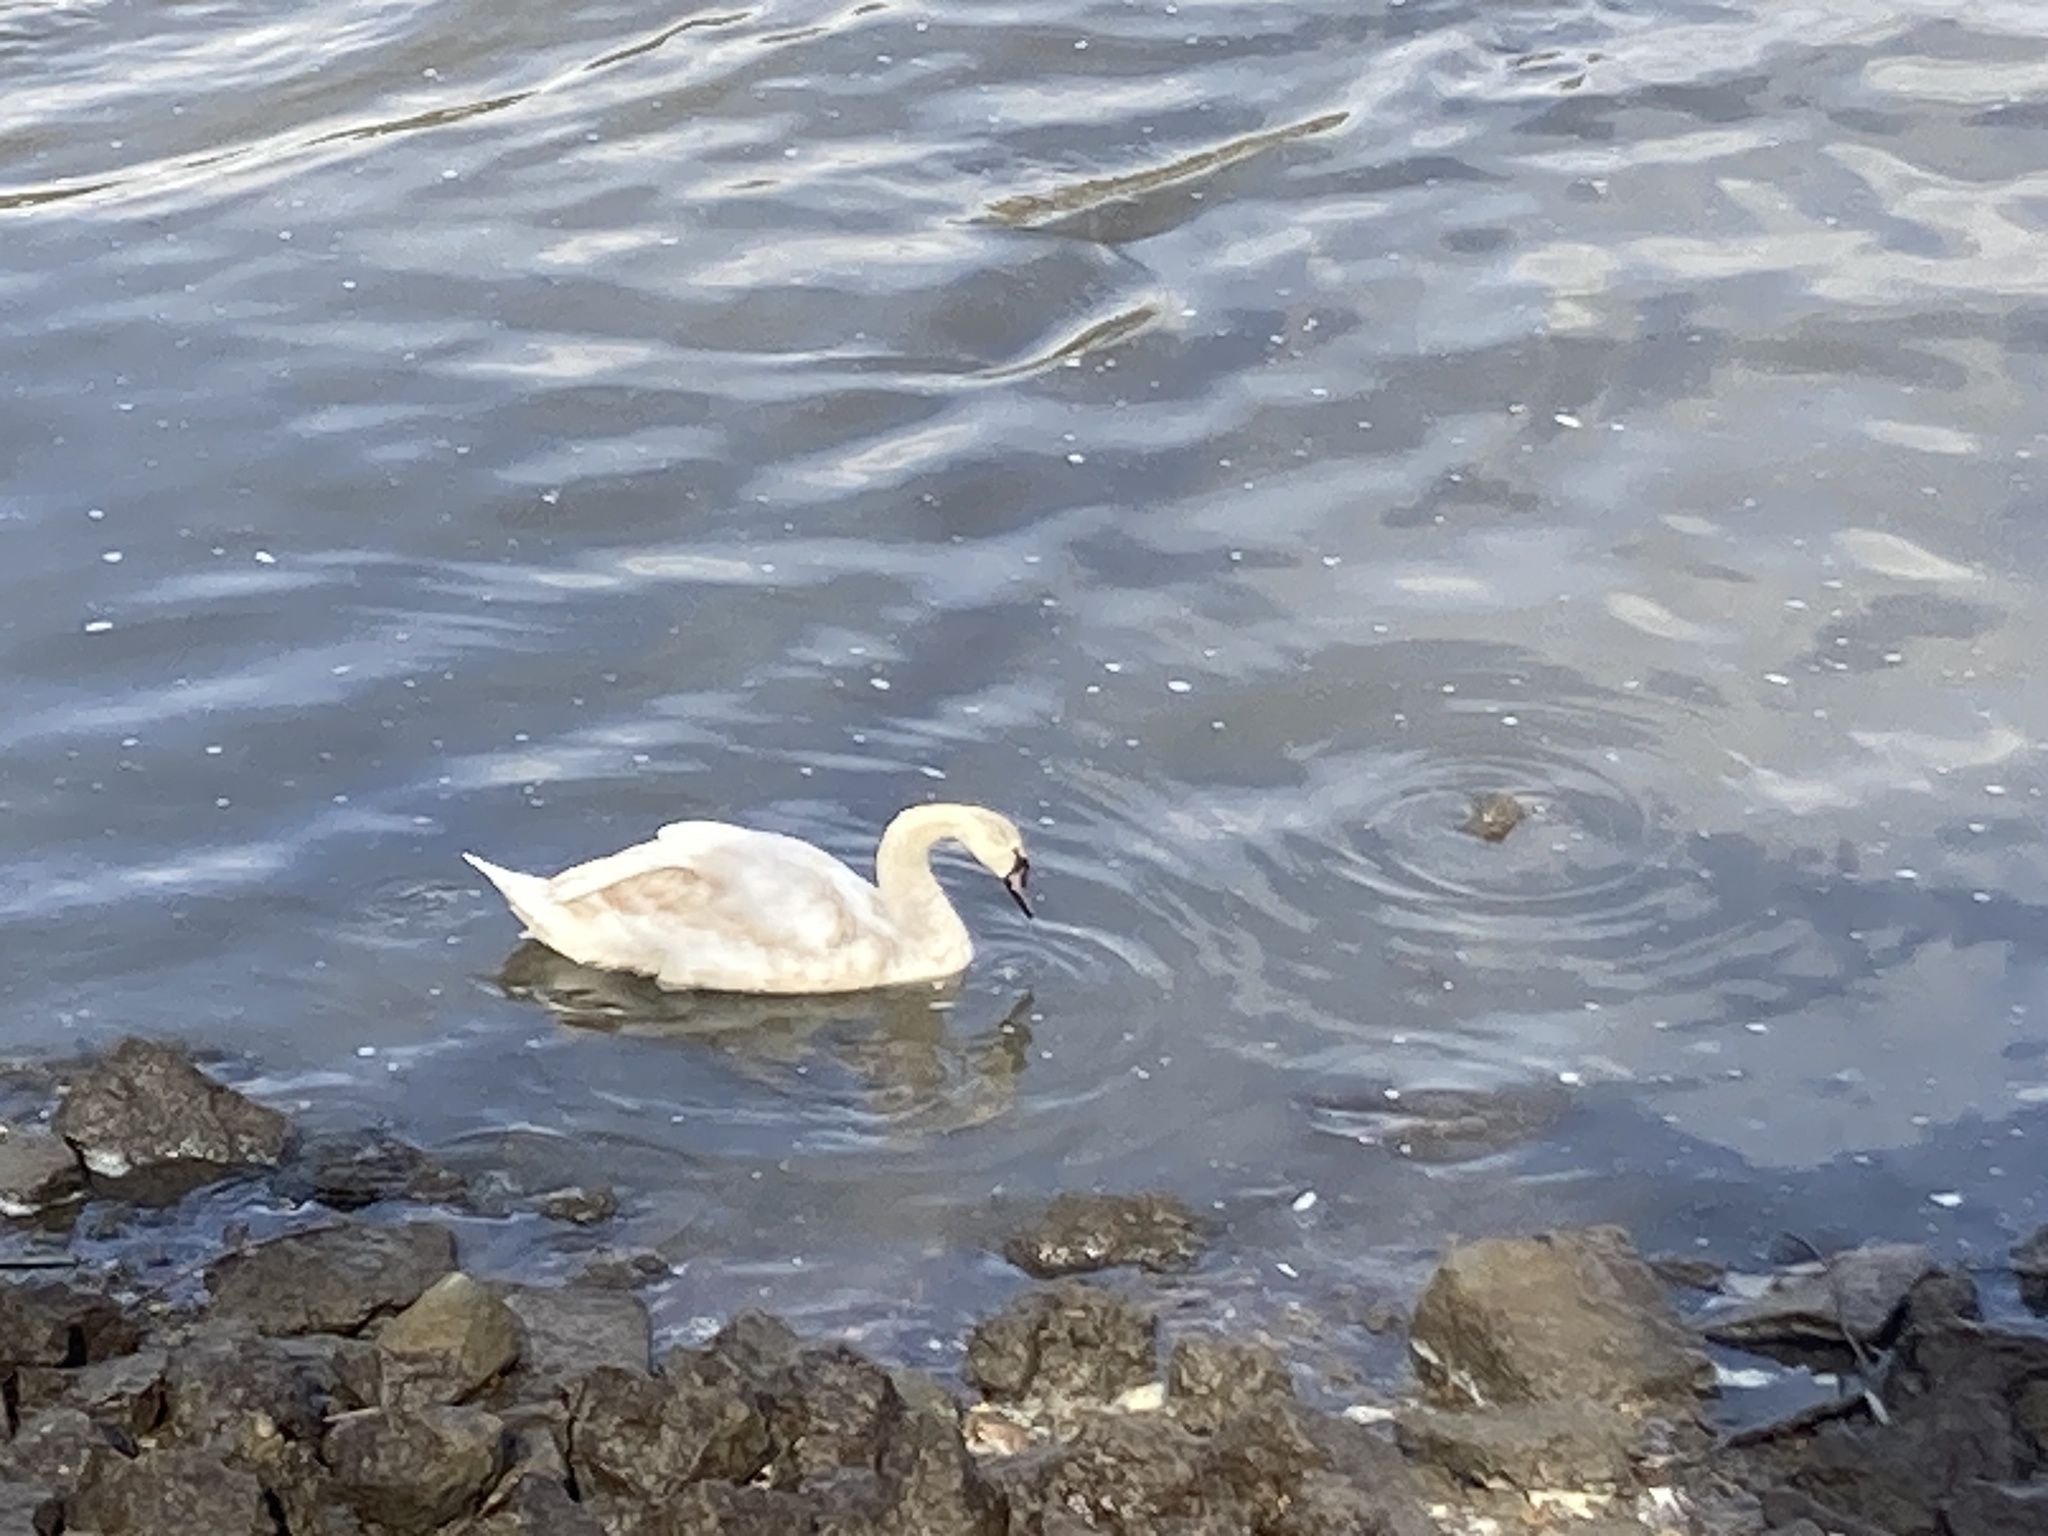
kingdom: Animalia
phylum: Chordata
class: Aves
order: Anseriformes
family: Anatidae
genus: Cygnus
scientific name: Cygnus olor
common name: Mute swan
